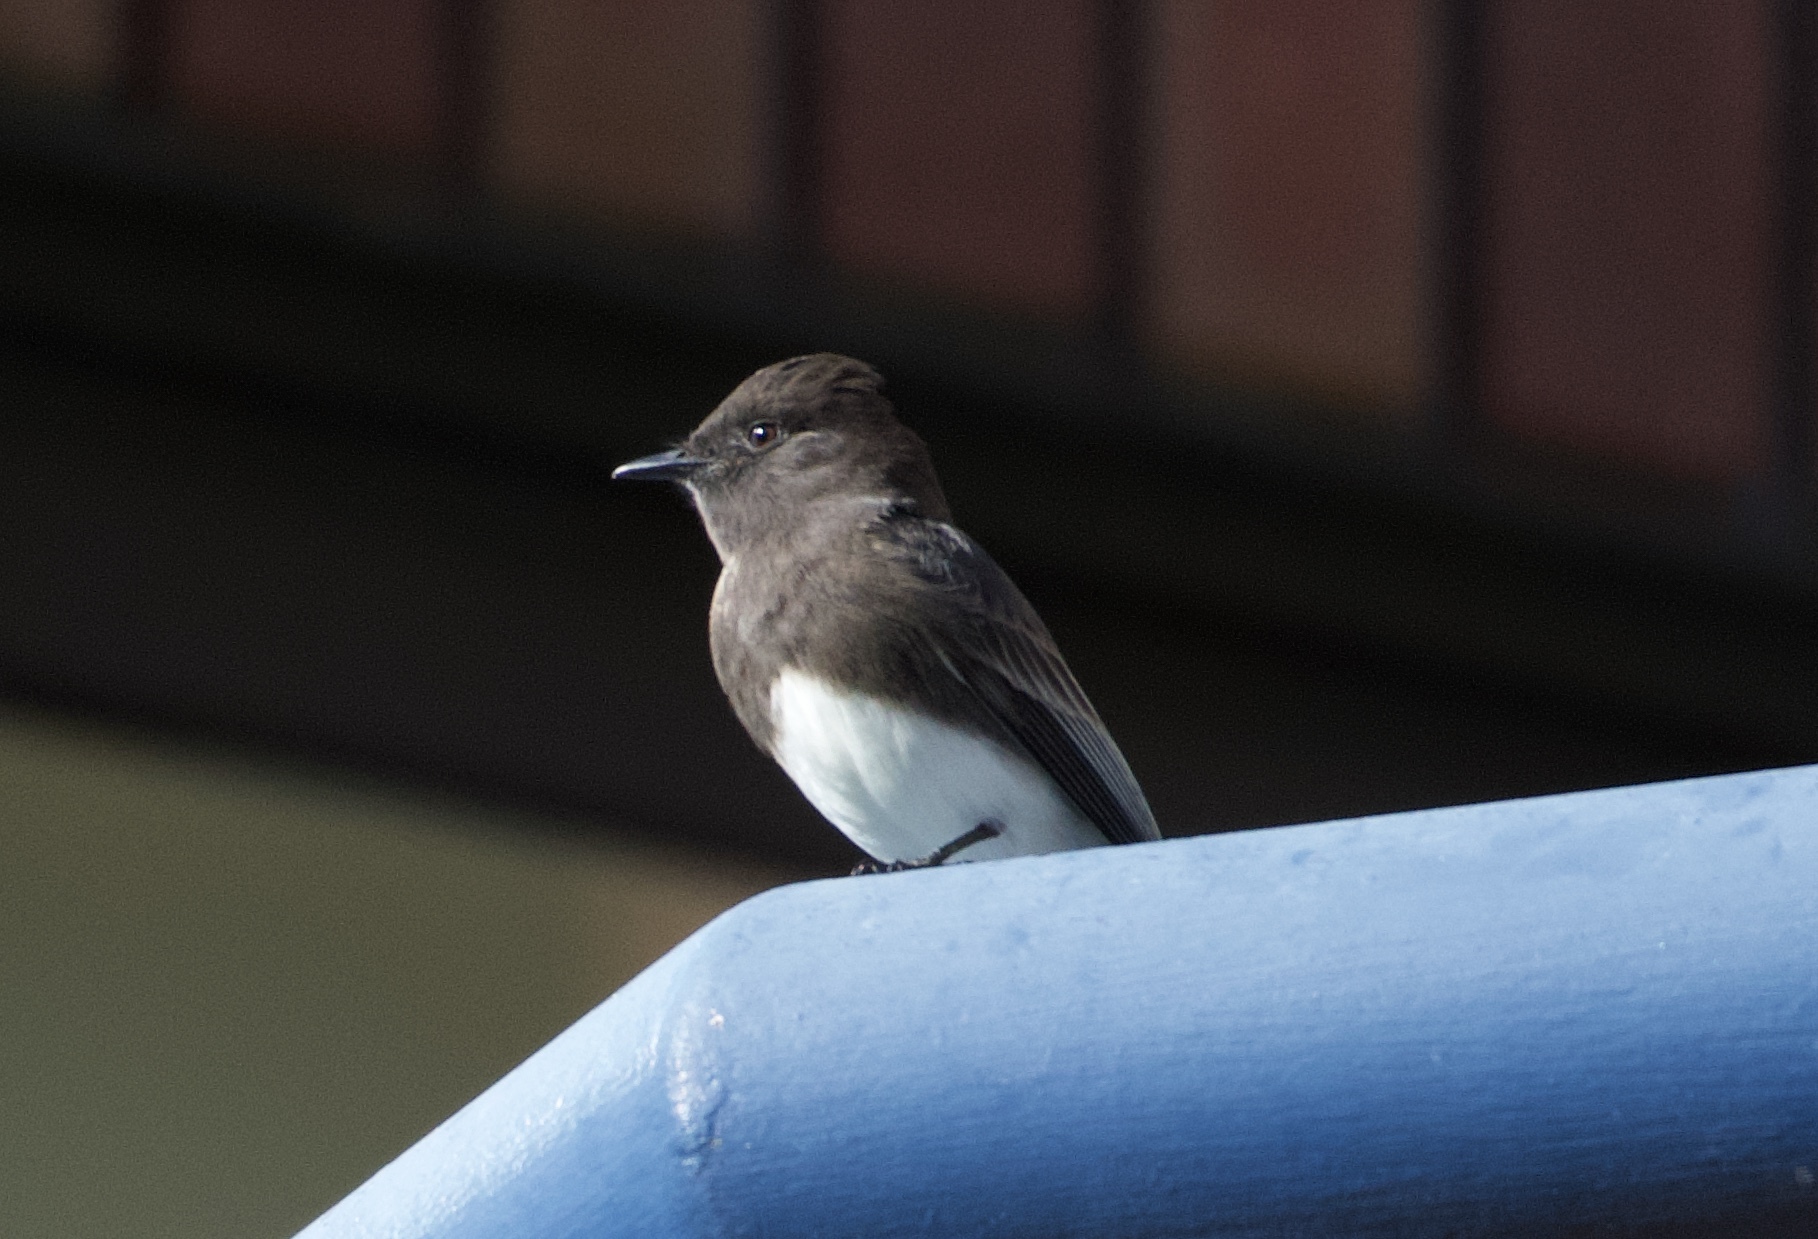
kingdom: Animalia
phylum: Chordata
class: Aves
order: Passeriformes
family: Tyrannidae
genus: Sayornis
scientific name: Sayornis nigricans
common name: Black phoebe
